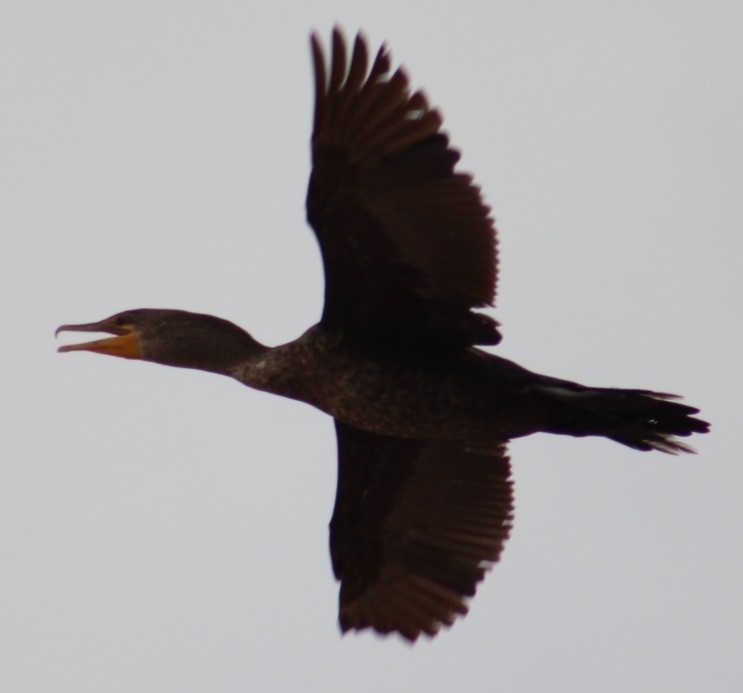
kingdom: Animalia
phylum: Chordata
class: Aves
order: Suliformes
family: Phalacrocoracidae
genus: Phalacrocorax
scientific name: Phalacrocorax auritus
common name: Double-crested cormorant
